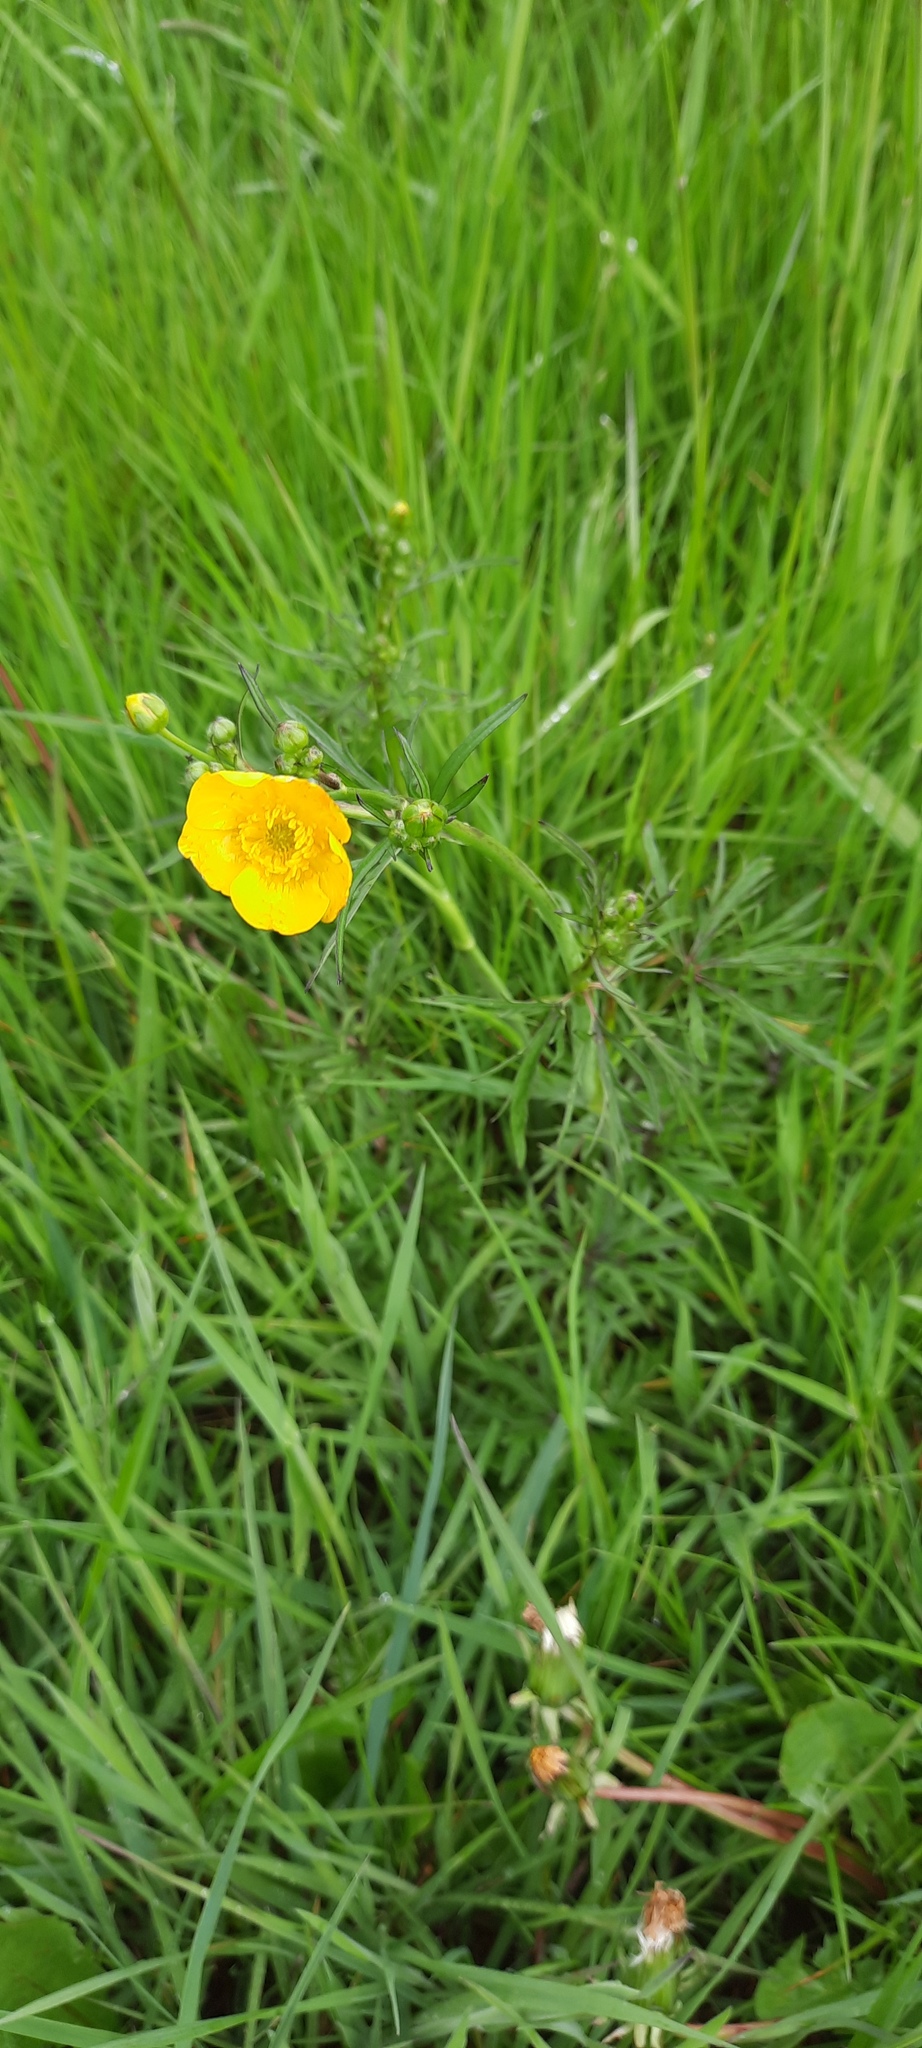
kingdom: Plantae
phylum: Tracheophyta
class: Magnoliopsida
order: Ranunculales
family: Ranunculaceae
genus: Ranunculus
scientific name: Ranunculus acris
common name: Meadow buttercup
